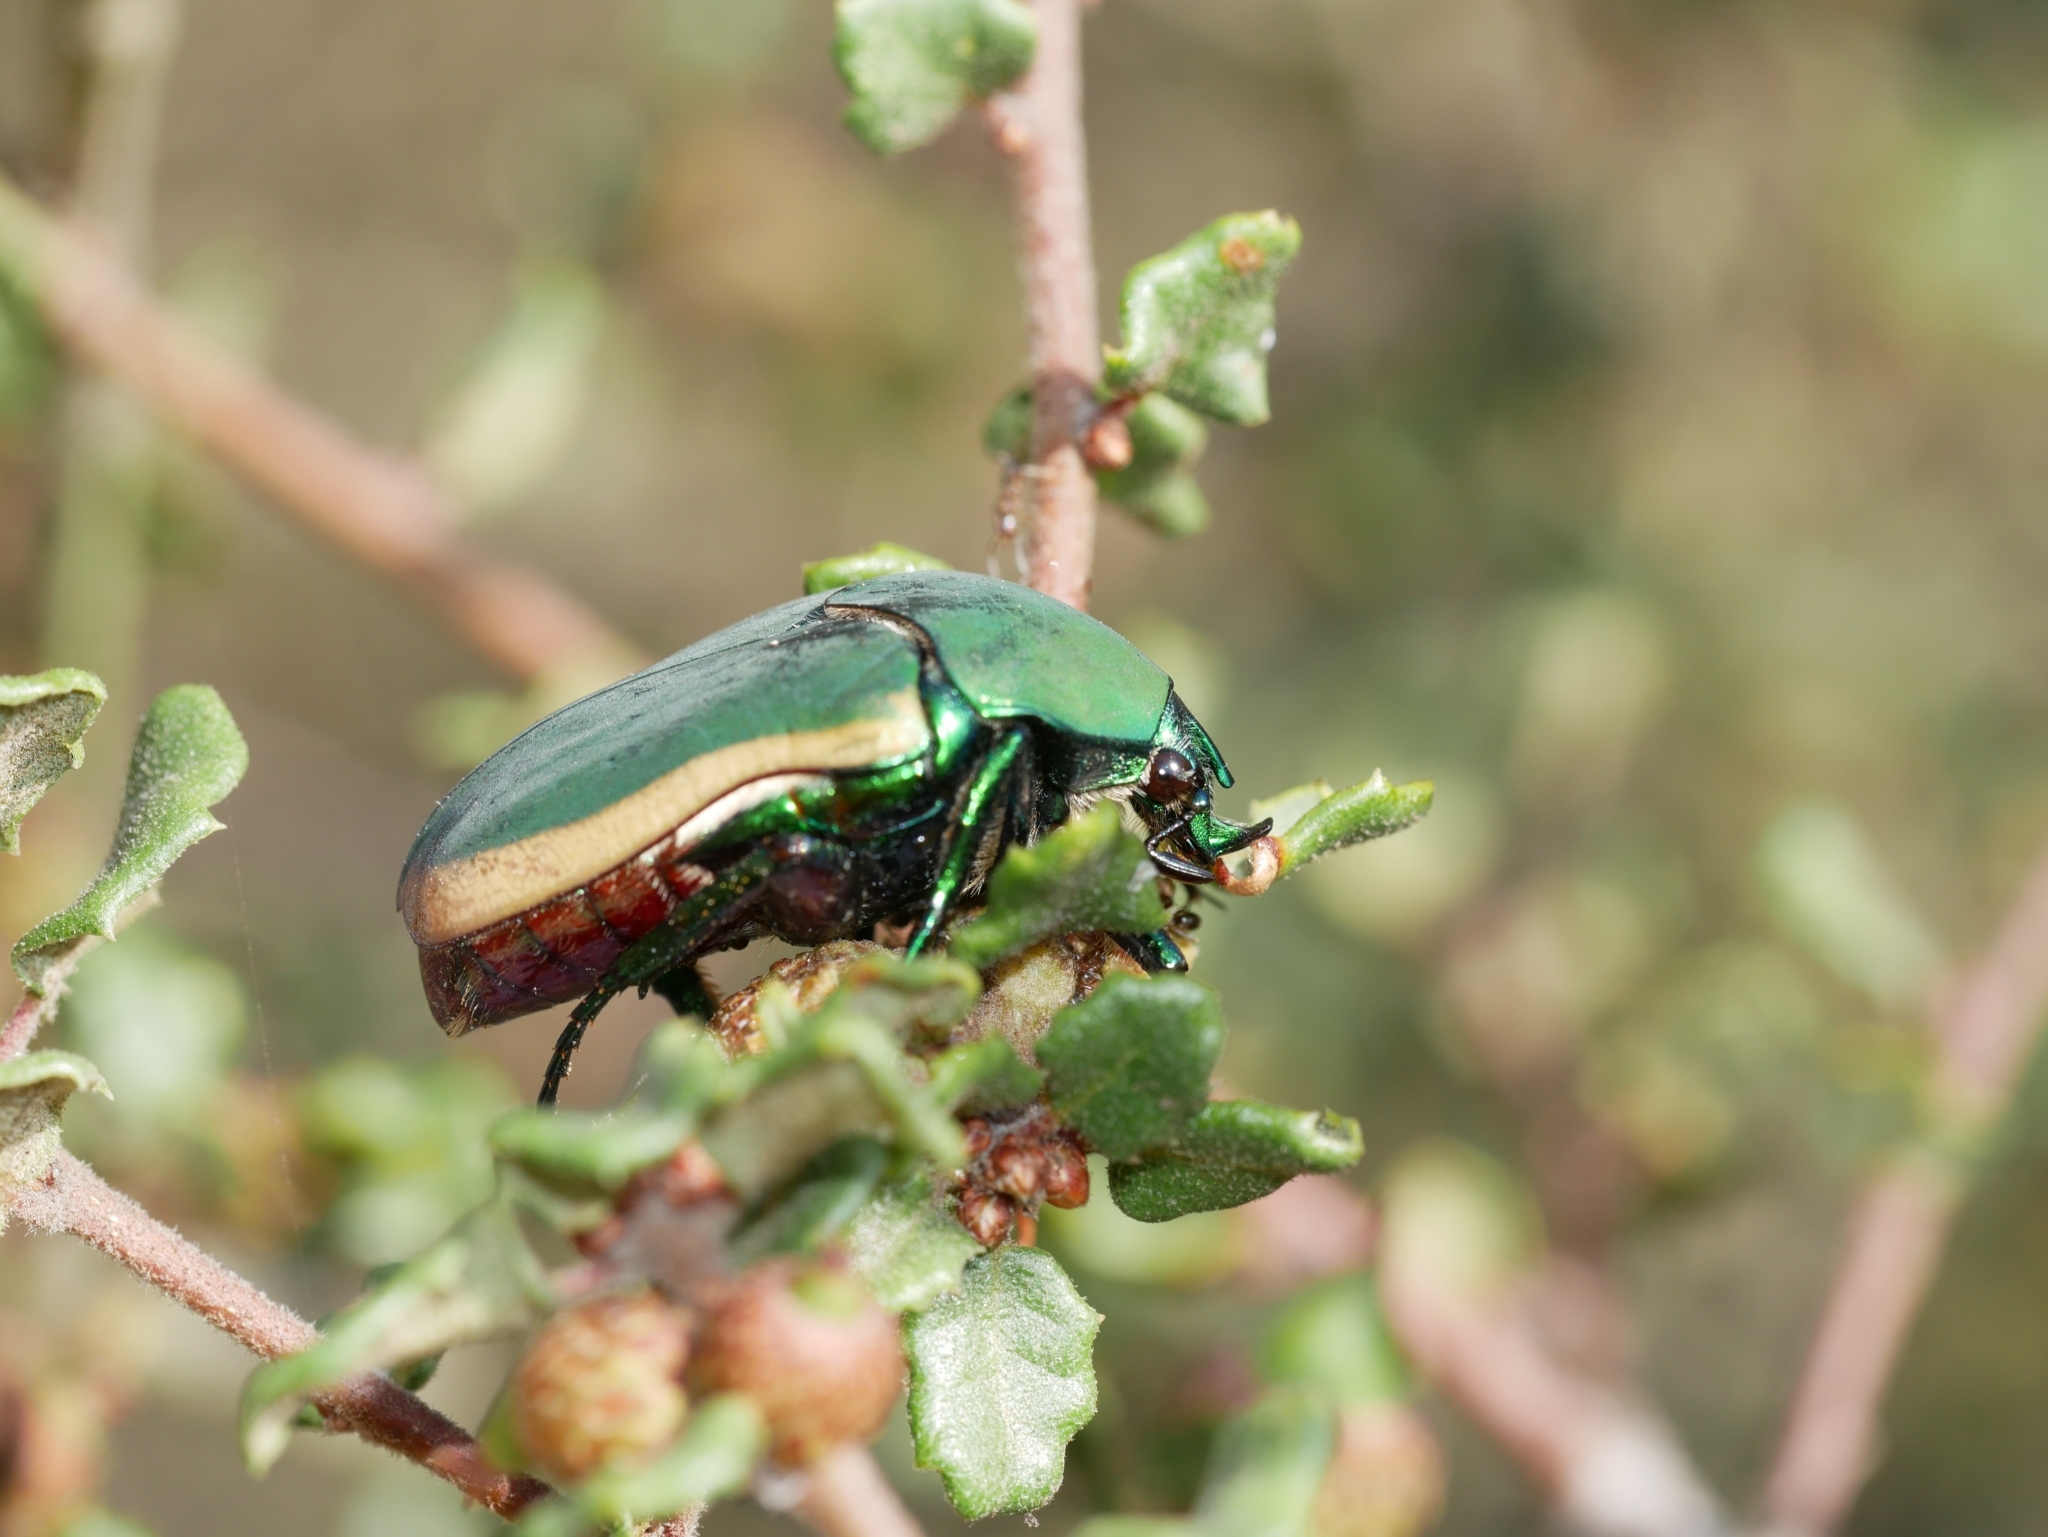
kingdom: Animalia
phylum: Arthropoda
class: Insecta
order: Coleoptera
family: Scarabaeidae
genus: Cotinis
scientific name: Cotinis mutabilis
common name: Figeater beetle
